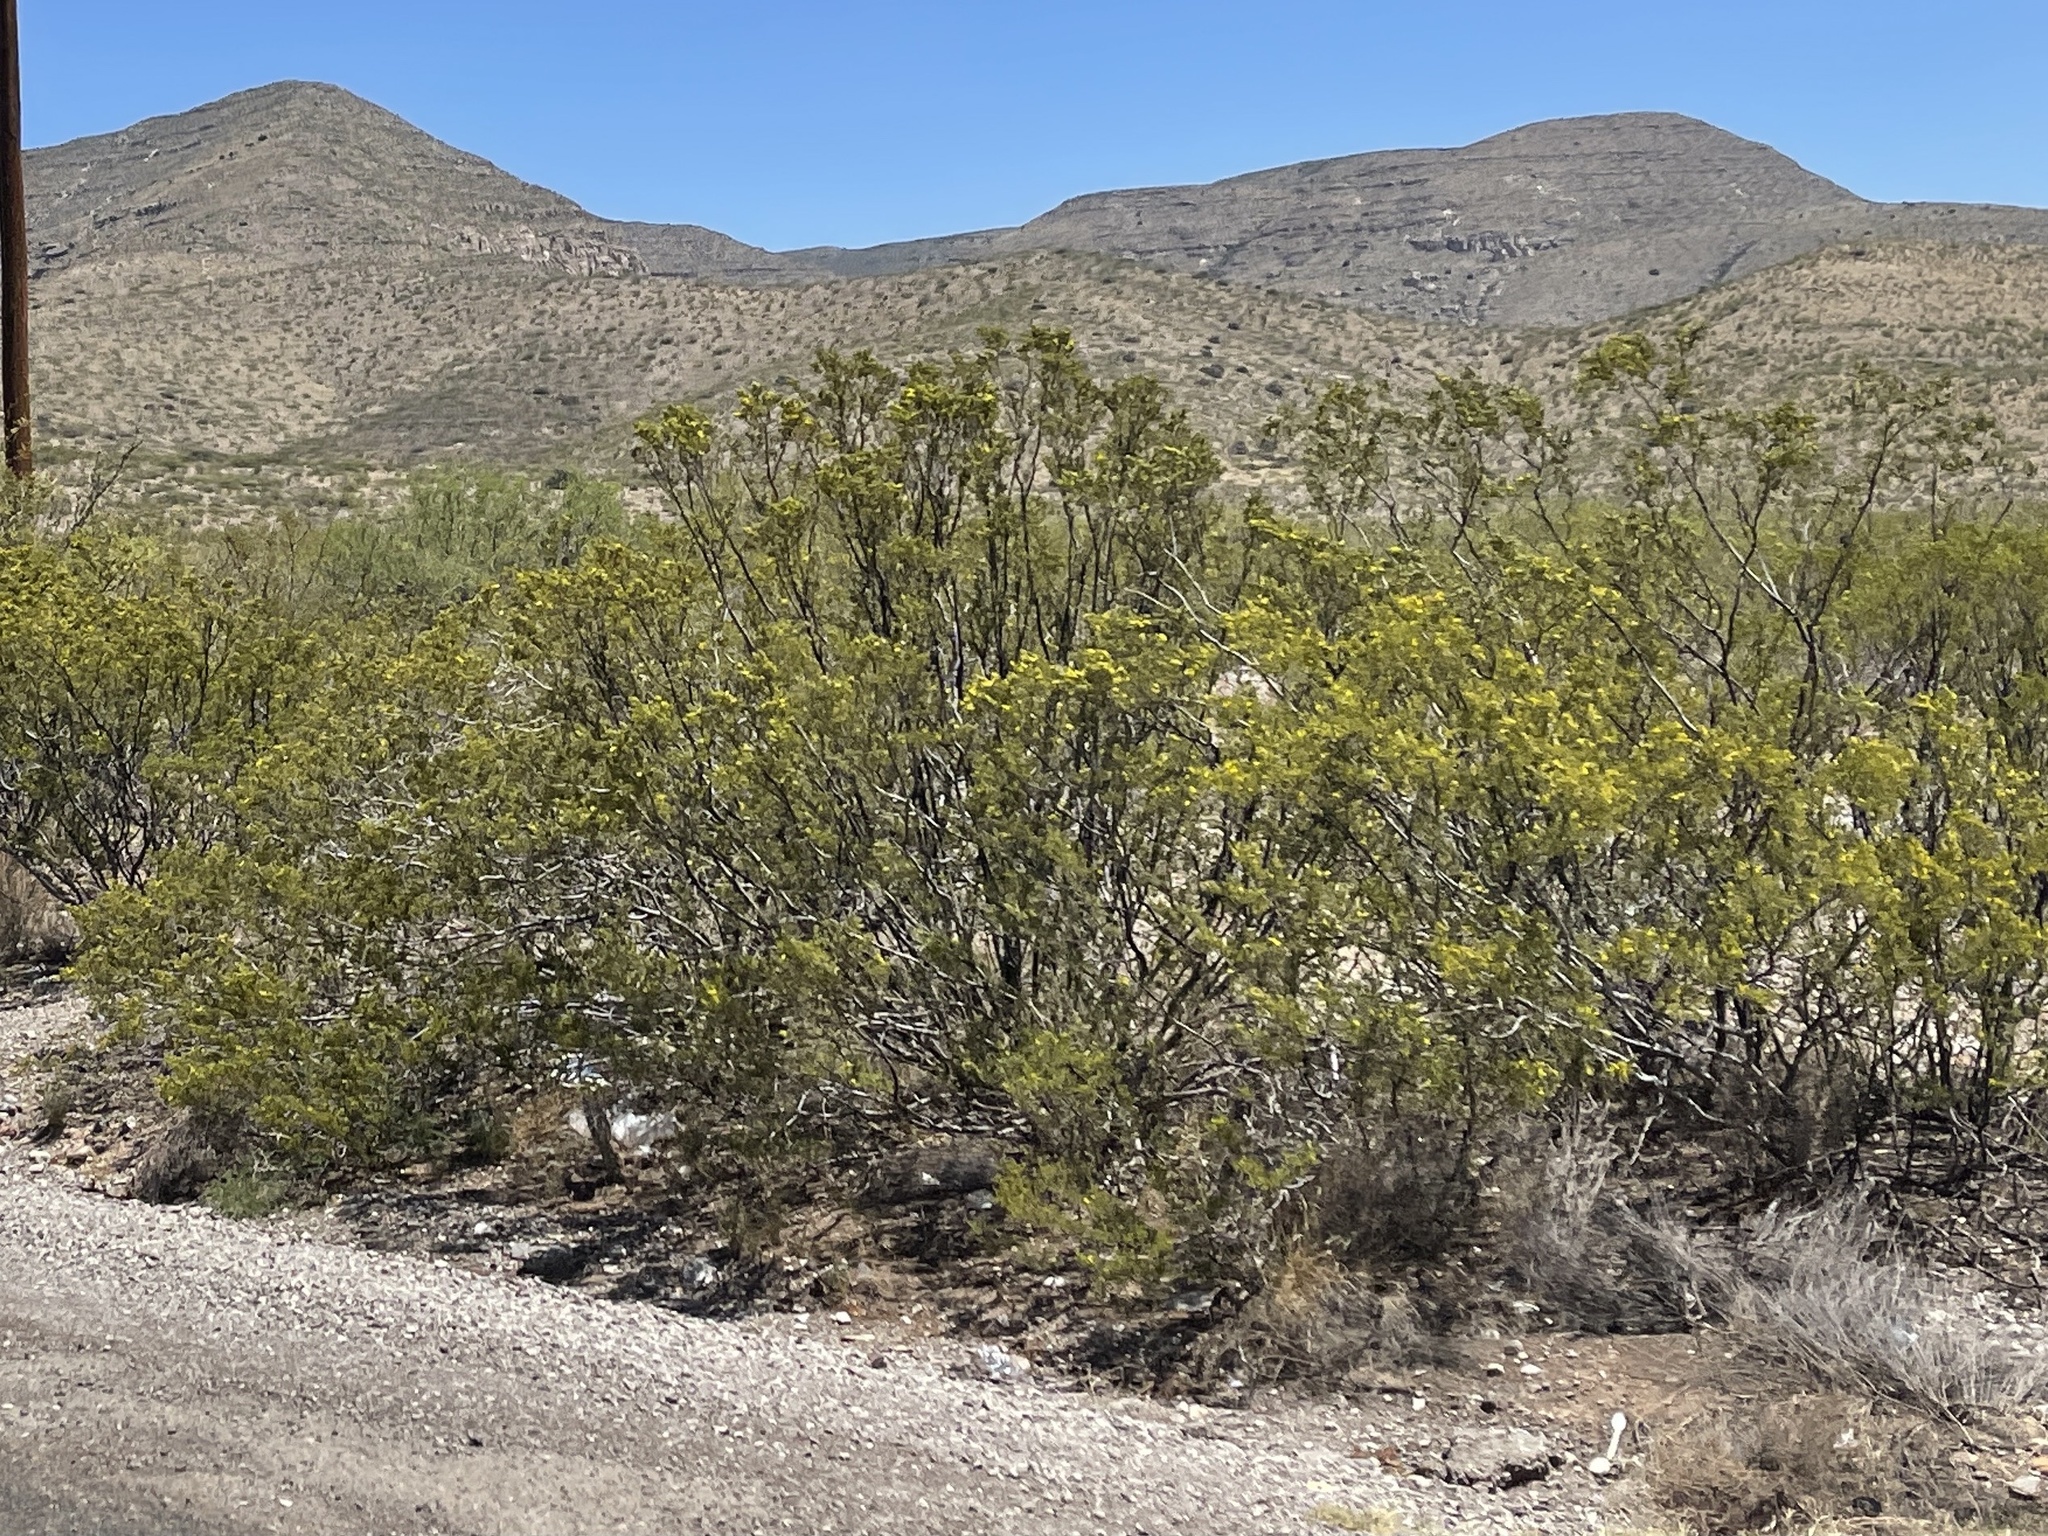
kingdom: Plantae
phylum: Tracheophyta
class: Magnoliopsida
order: Zygophyllales
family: Zygophyllaceae
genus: Larrea
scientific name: Larrea tridentata
